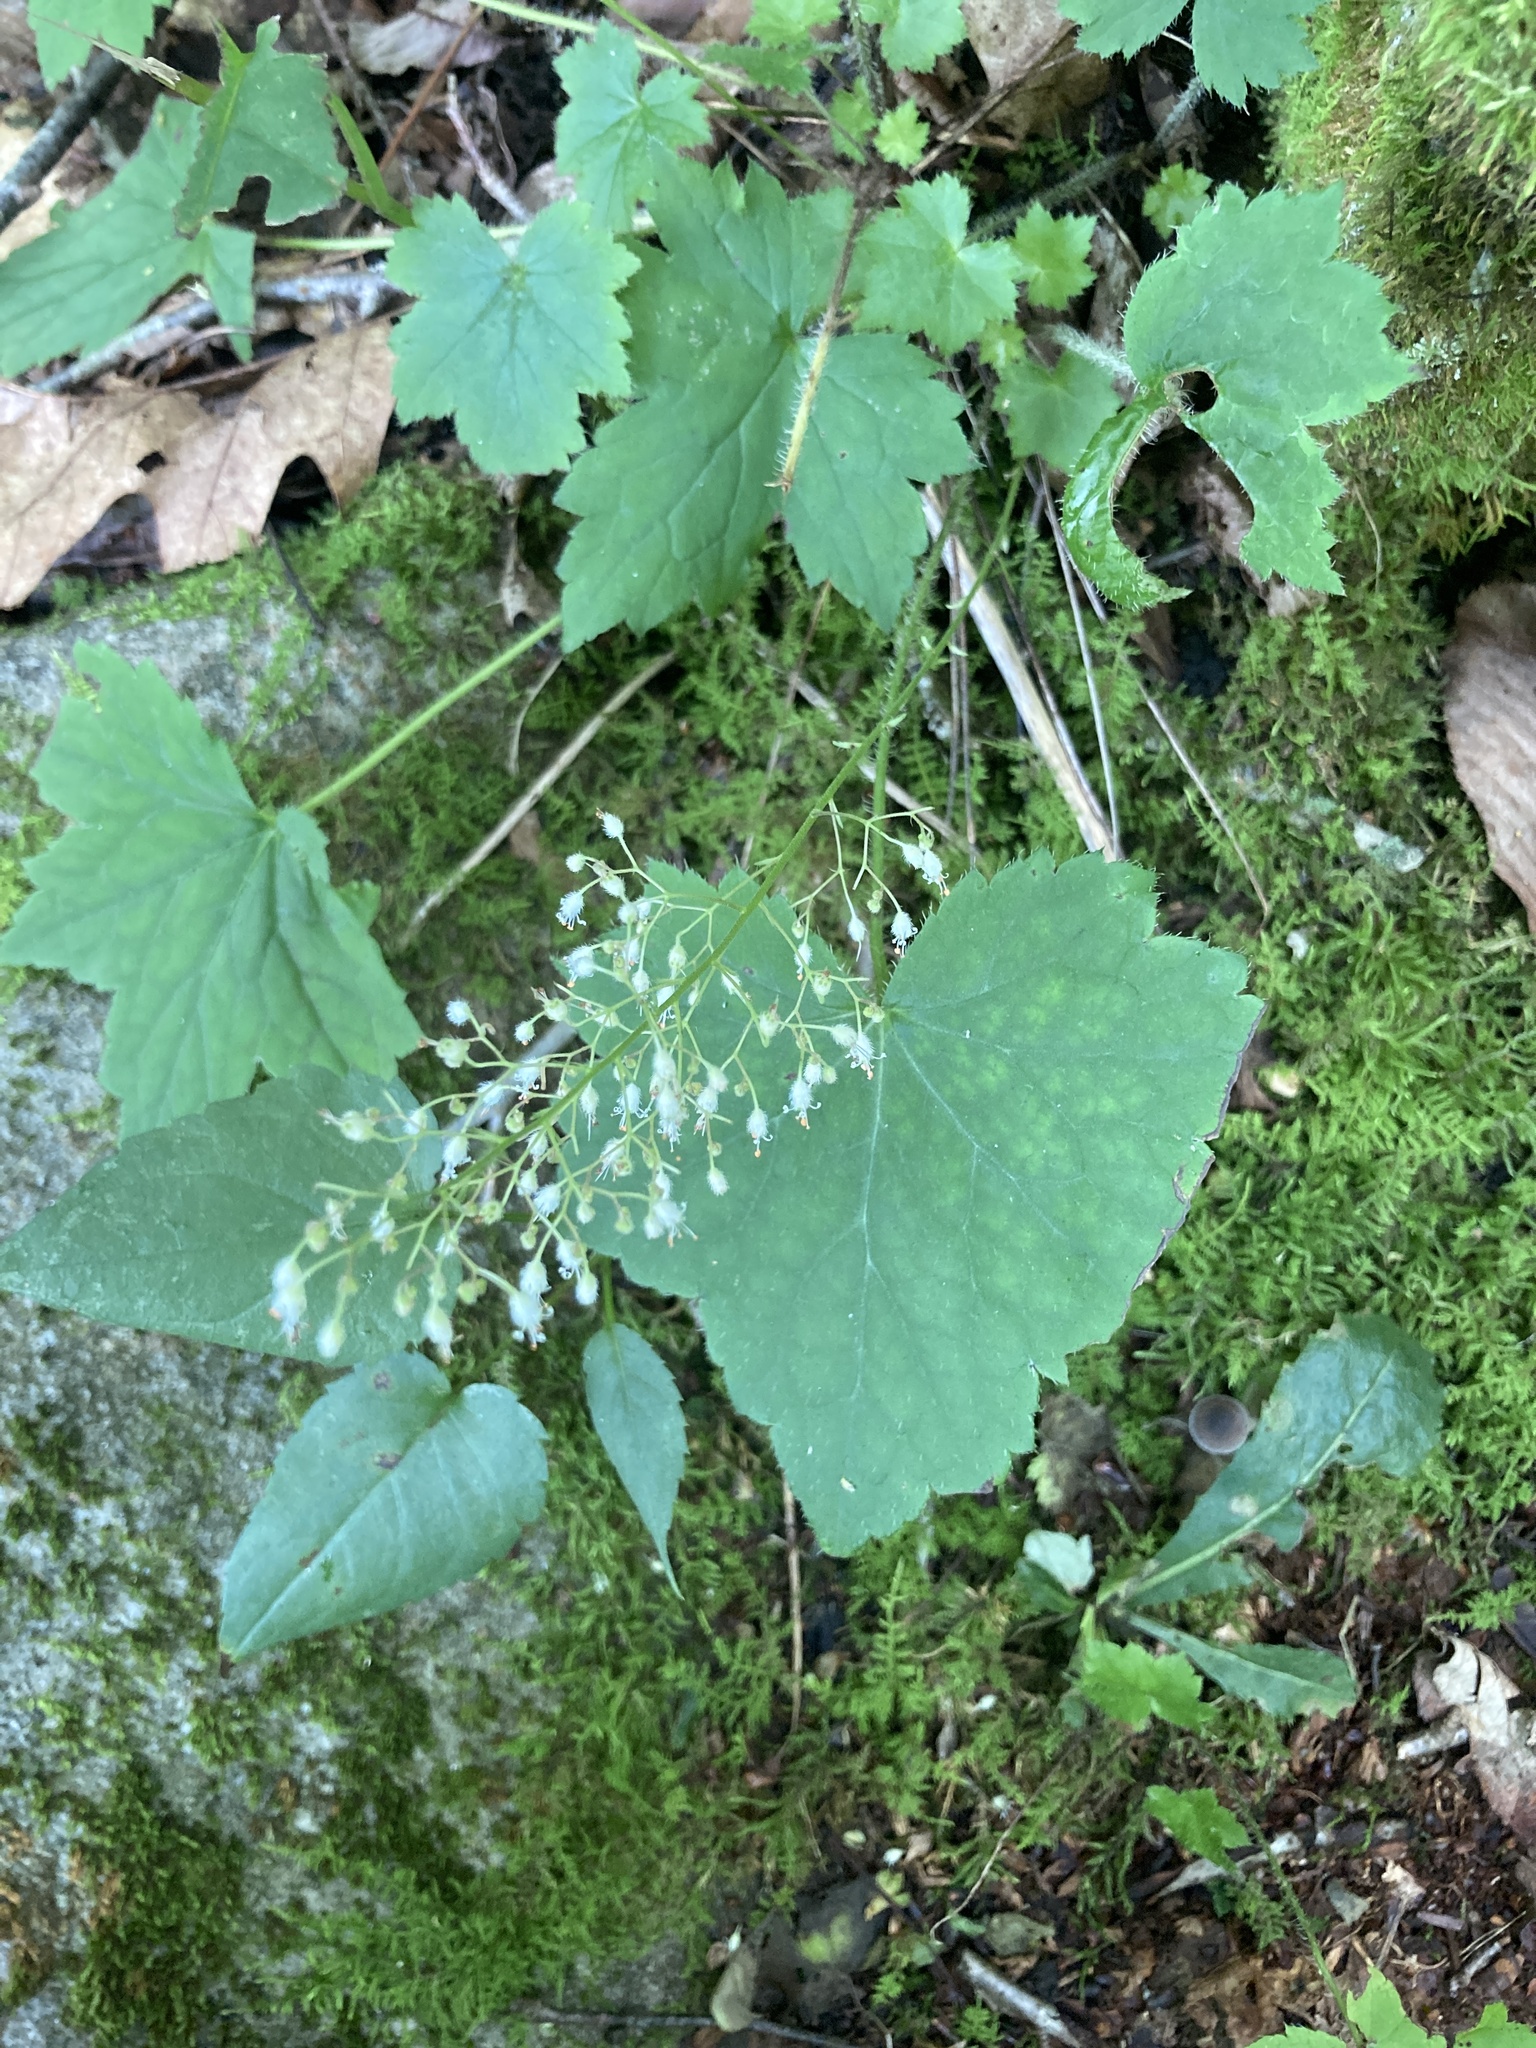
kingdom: Plantae
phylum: Tracheophyta
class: Magnoliopsida
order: Saxifragales
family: Saxifragaceae
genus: Heuchera
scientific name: Heuchera villosa
